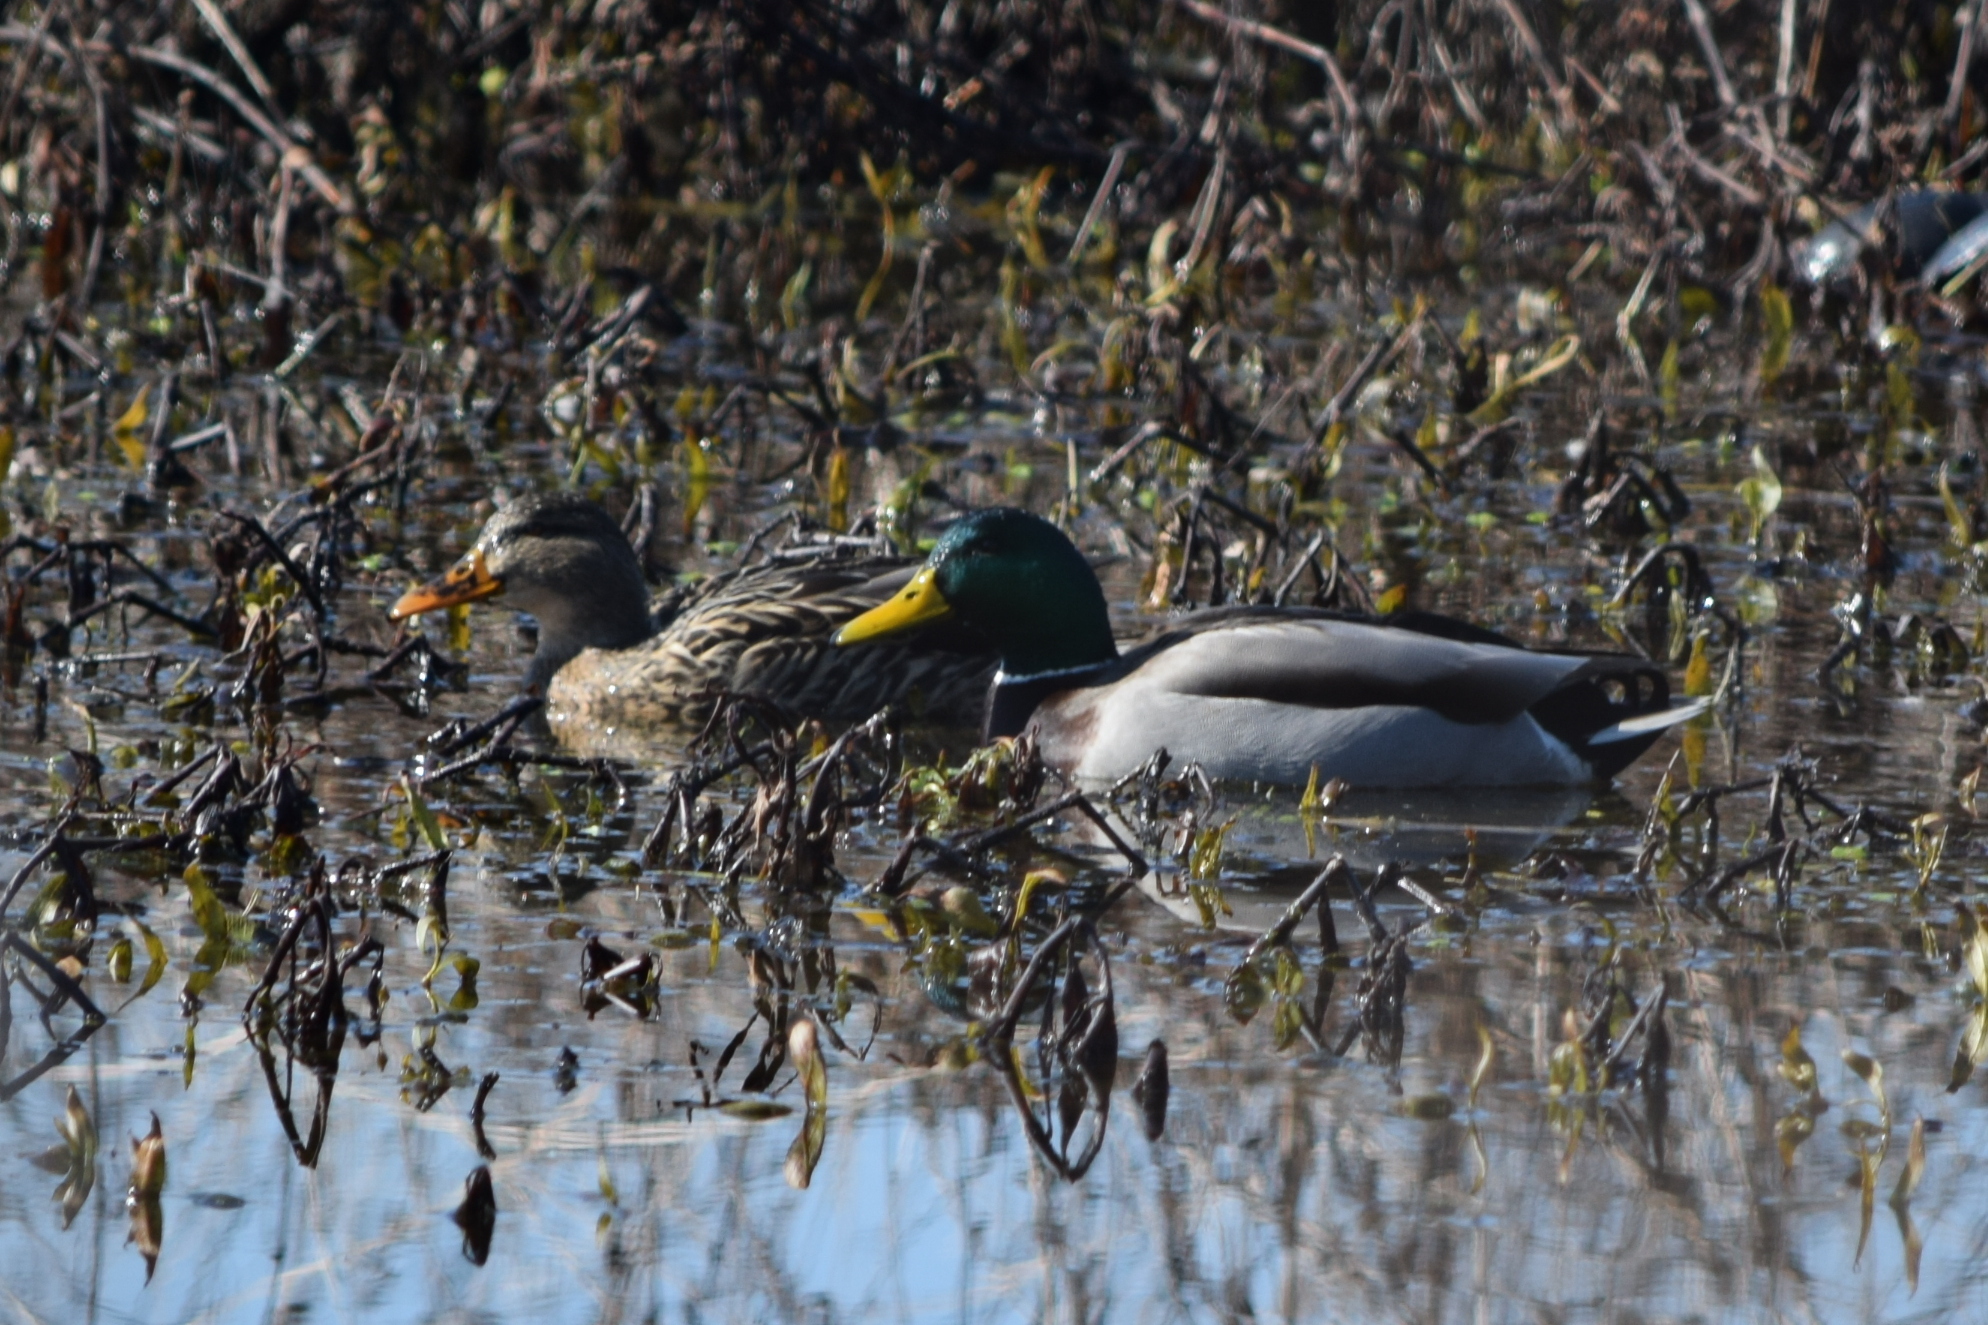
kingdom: Animalia
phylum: Chordata
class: Aves
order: Anseriformes
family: Anatidae
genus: Anas
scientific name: Anas platyrhynchos
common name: Mallard
